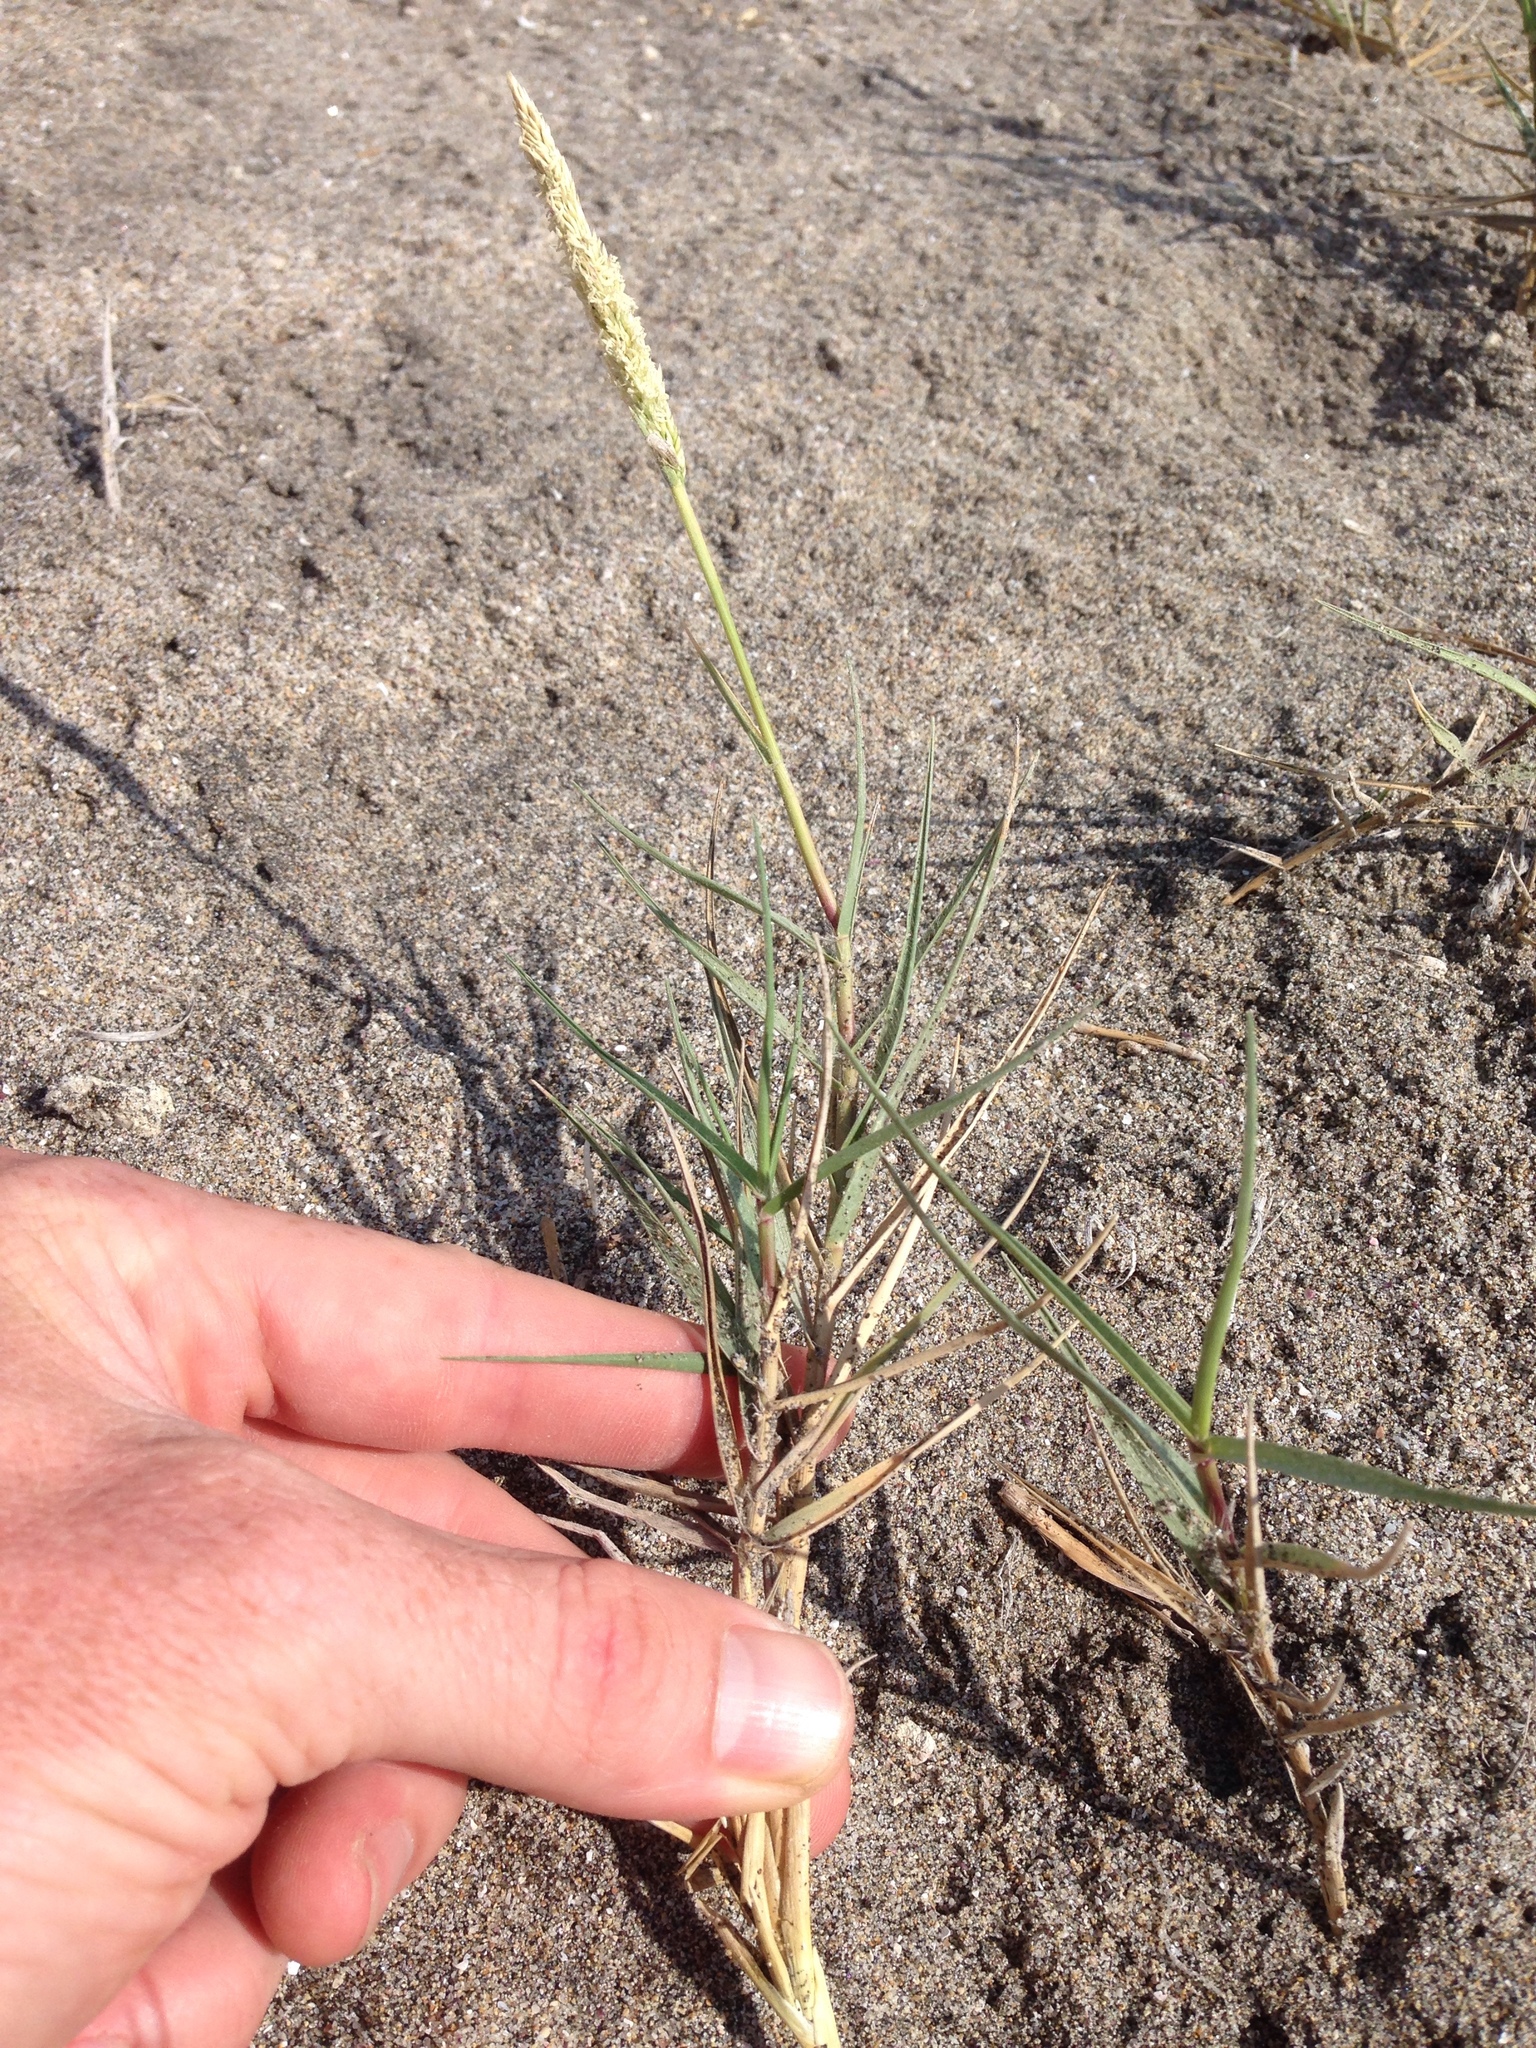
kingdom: Plantae
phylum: Tracheophyta
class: Liliopsida
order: Poales
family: Poaceae
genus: Sporobolus
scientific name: Sporobolus virginicus
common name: Beach dropseed
